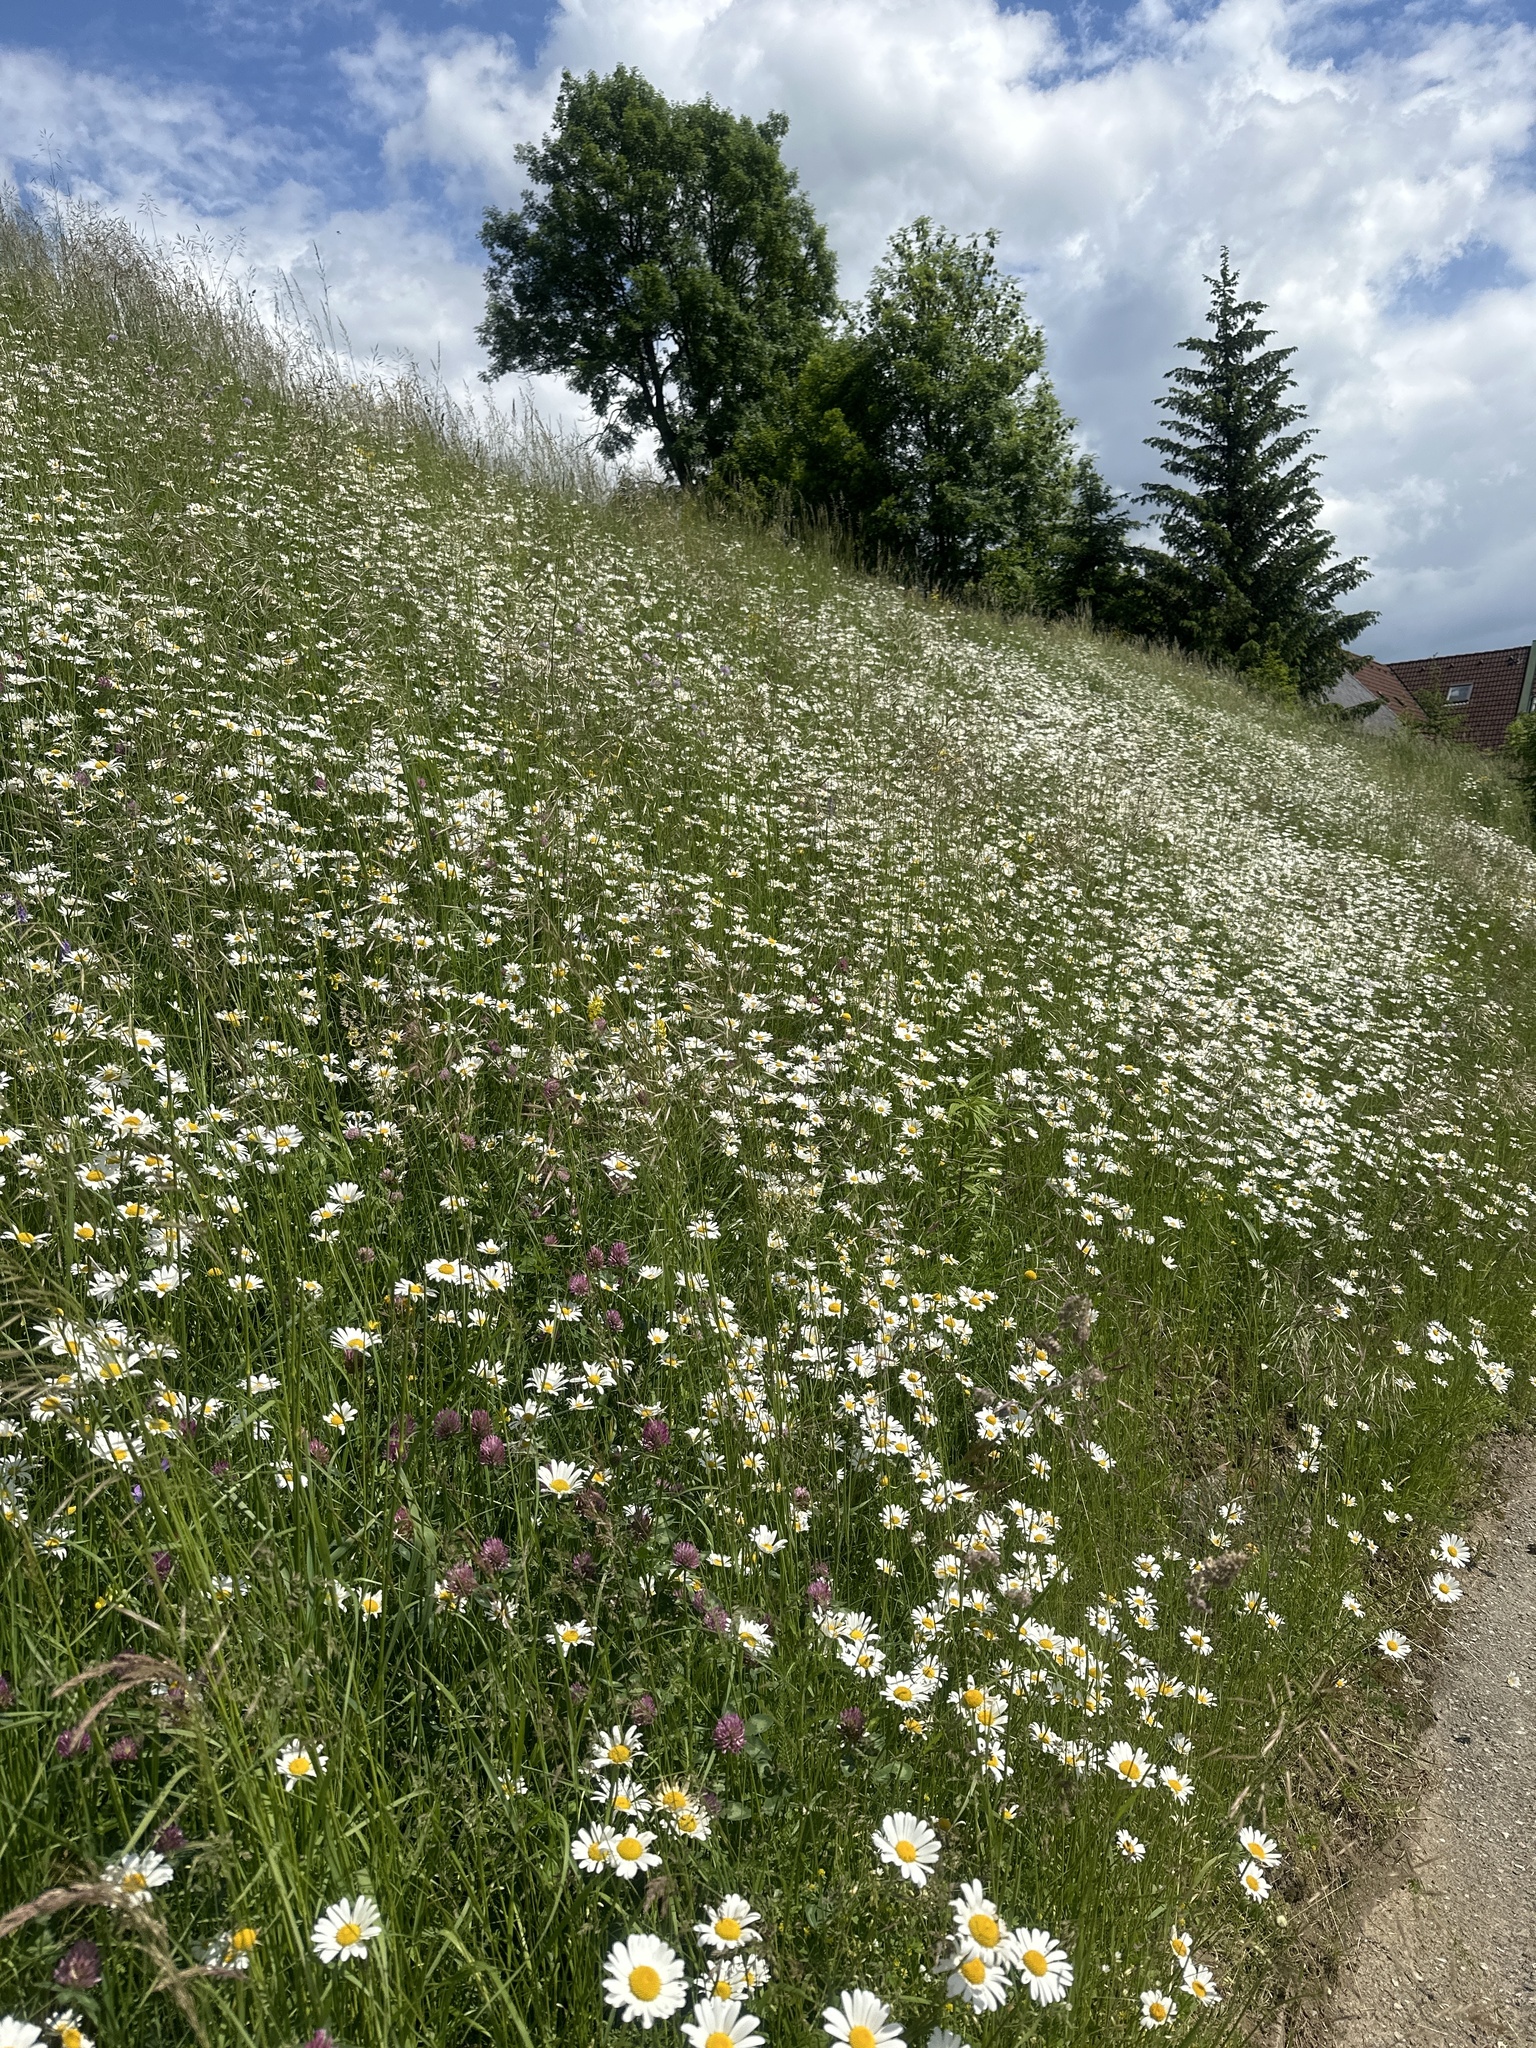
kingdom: Plantae
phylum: Tracheophyta
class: Magnoliopsida
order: Asterales
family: Asteraceae
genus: Leucanthemum
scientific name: Leucanthemum vulgare
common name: Oxeye daisy
